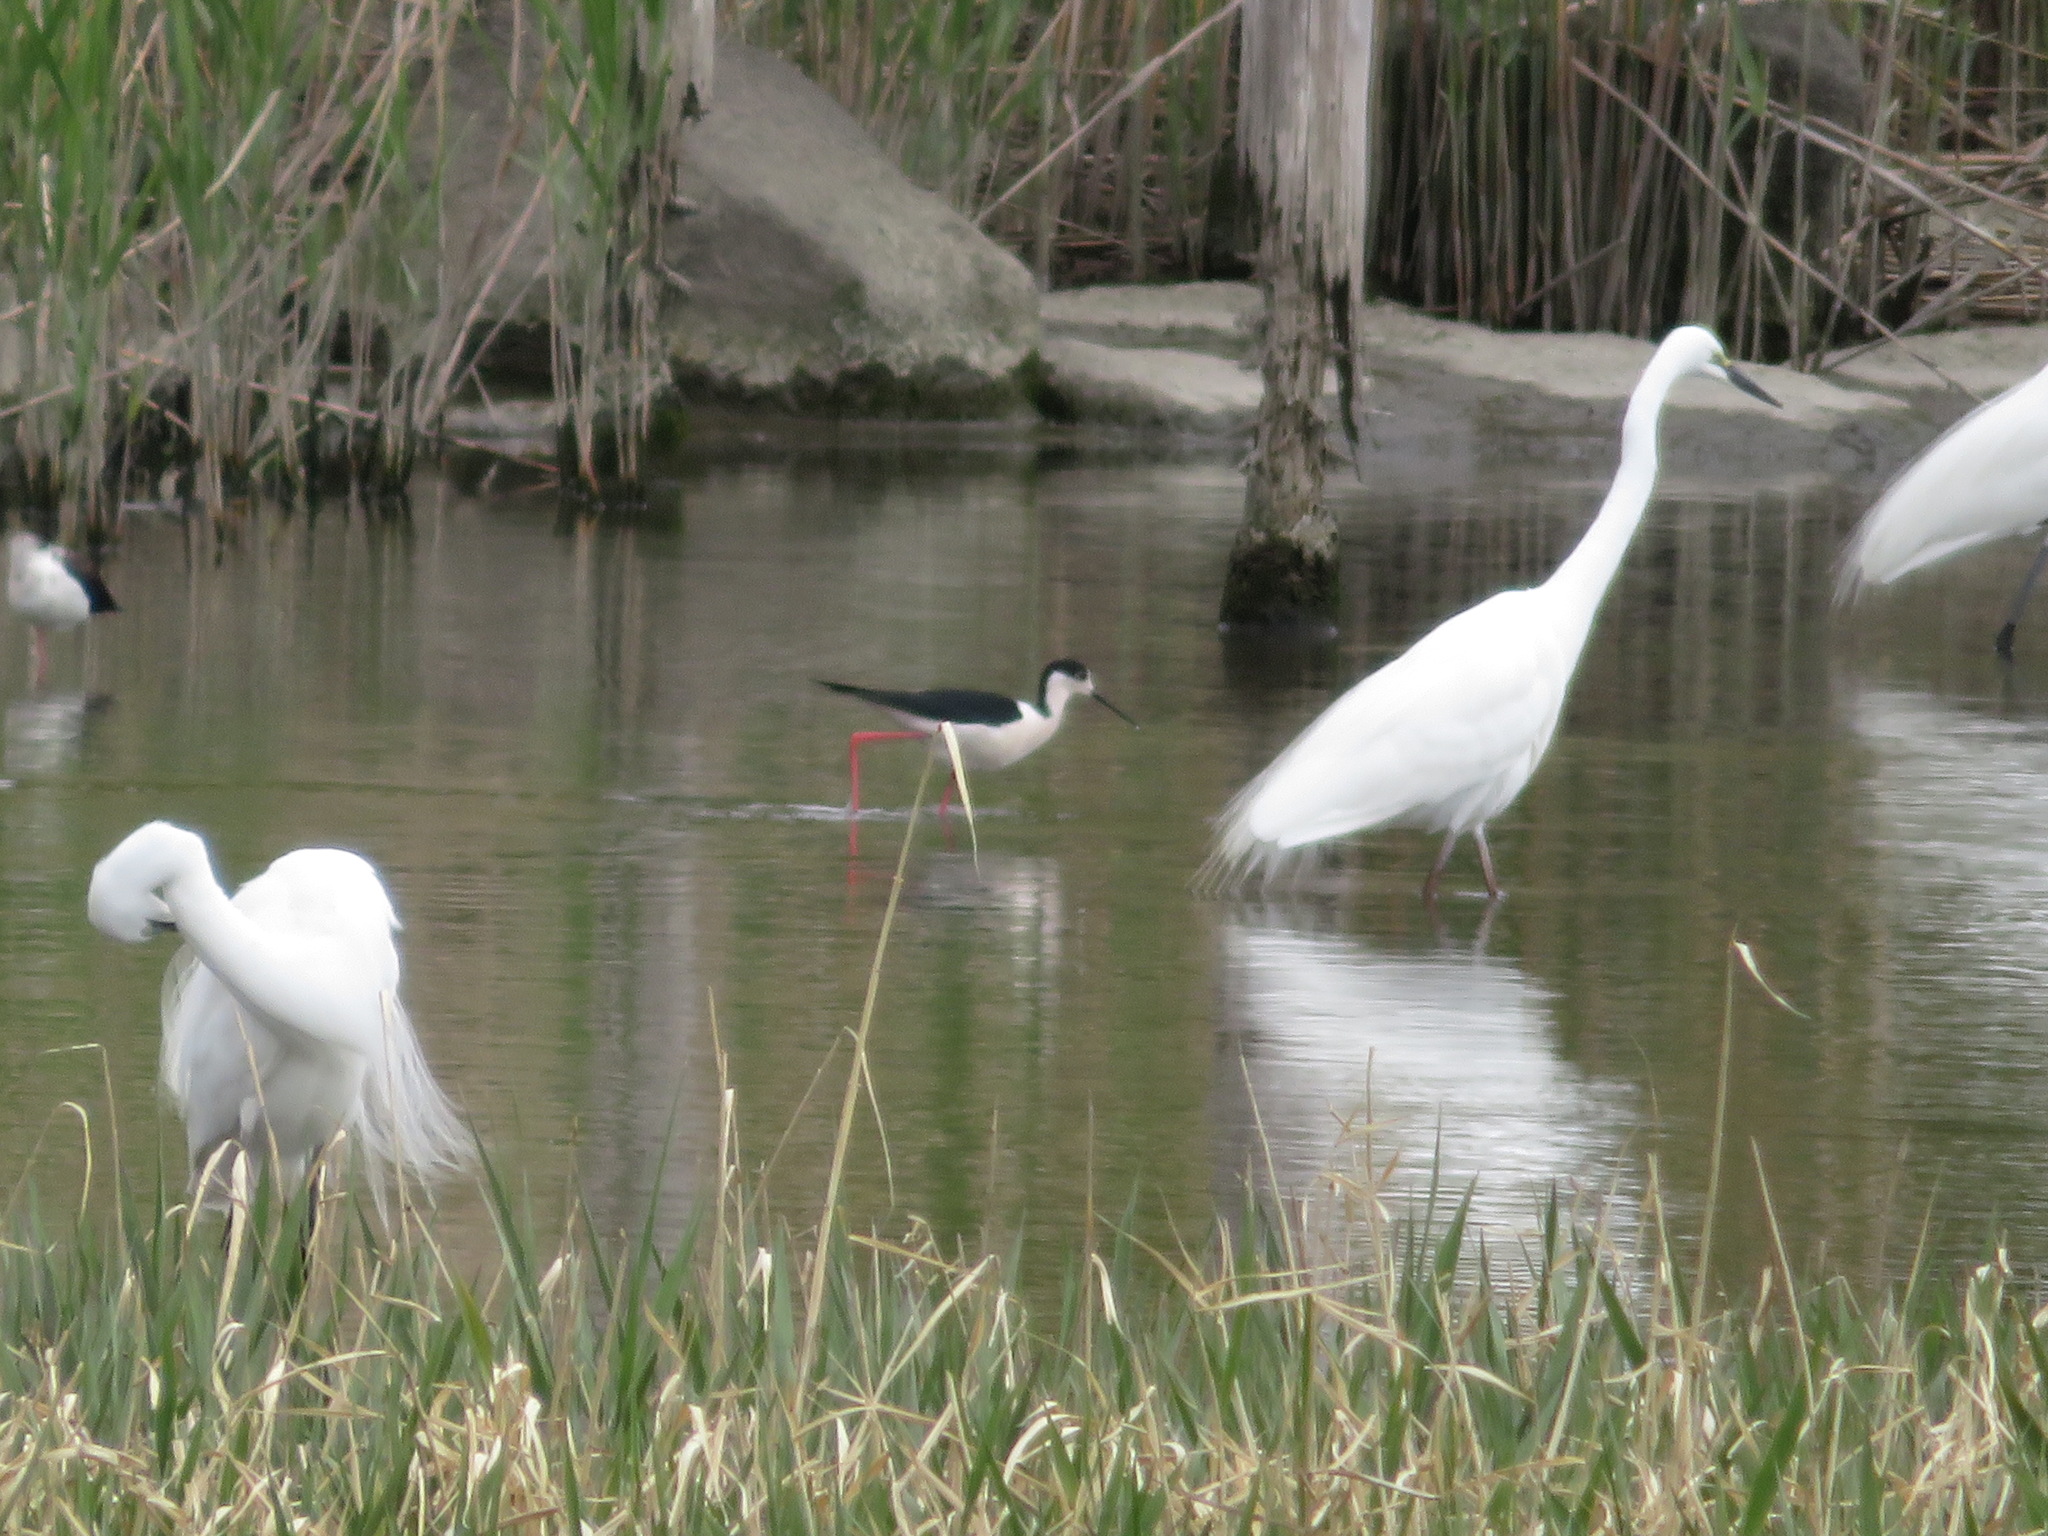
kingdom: Animalia
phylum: Chordata
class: Aves
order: Charadriiformes
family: Recurvirostridae
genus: Himantopus
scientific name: Himantopus himantopus
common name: Black-winged stilt
